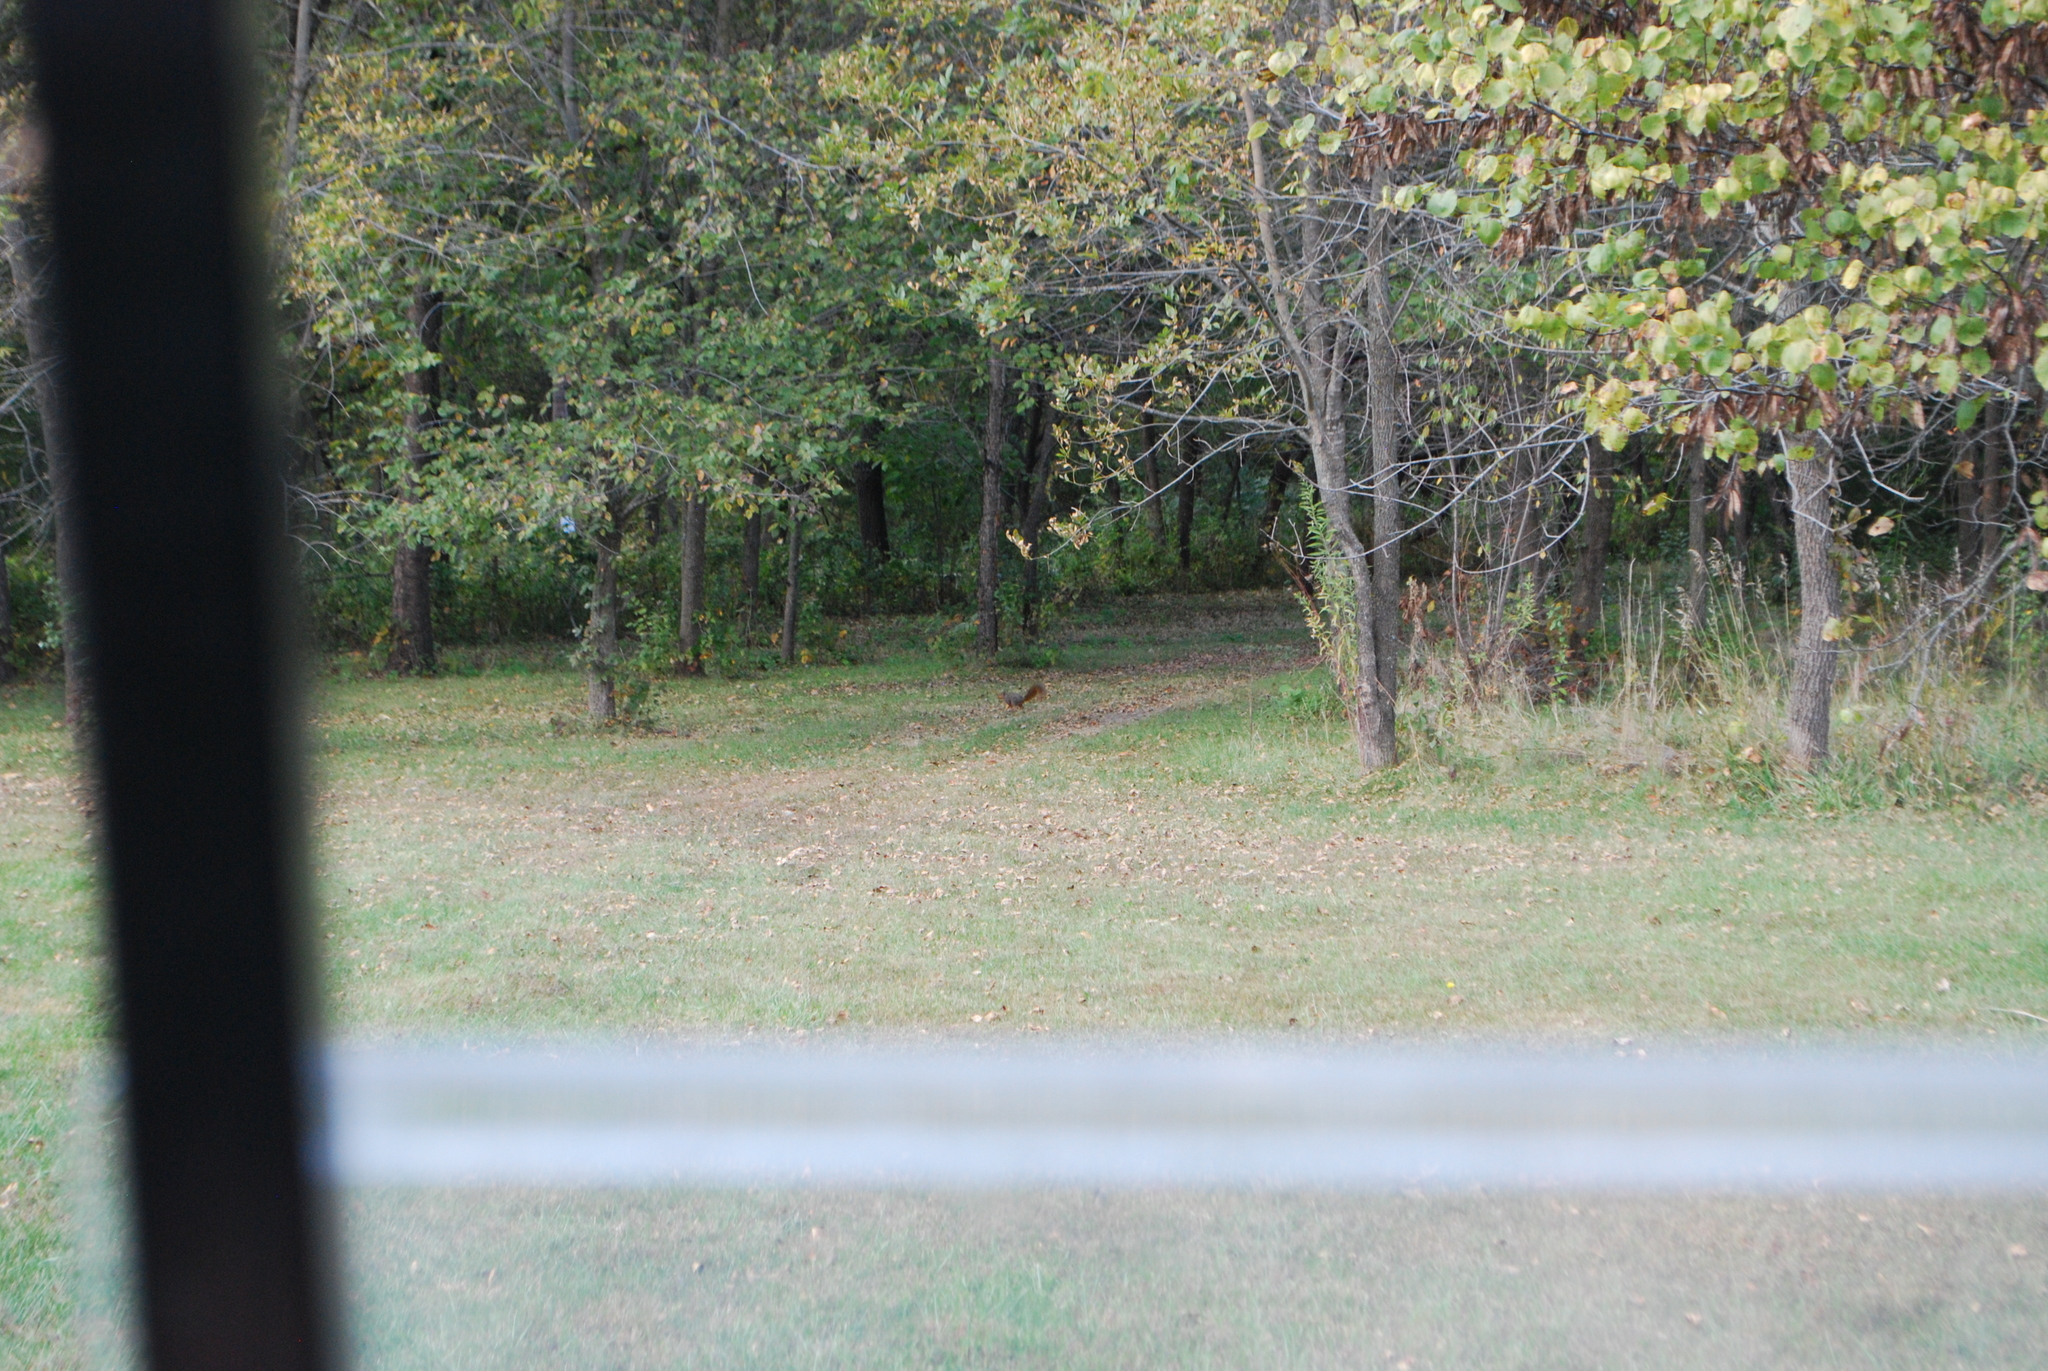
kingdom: Animalia
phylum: Chordata
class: Mammalia
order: Rodentia
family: Sciuridae
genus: Sciurus
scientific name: Sciurus niger
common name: Fox squirrel
